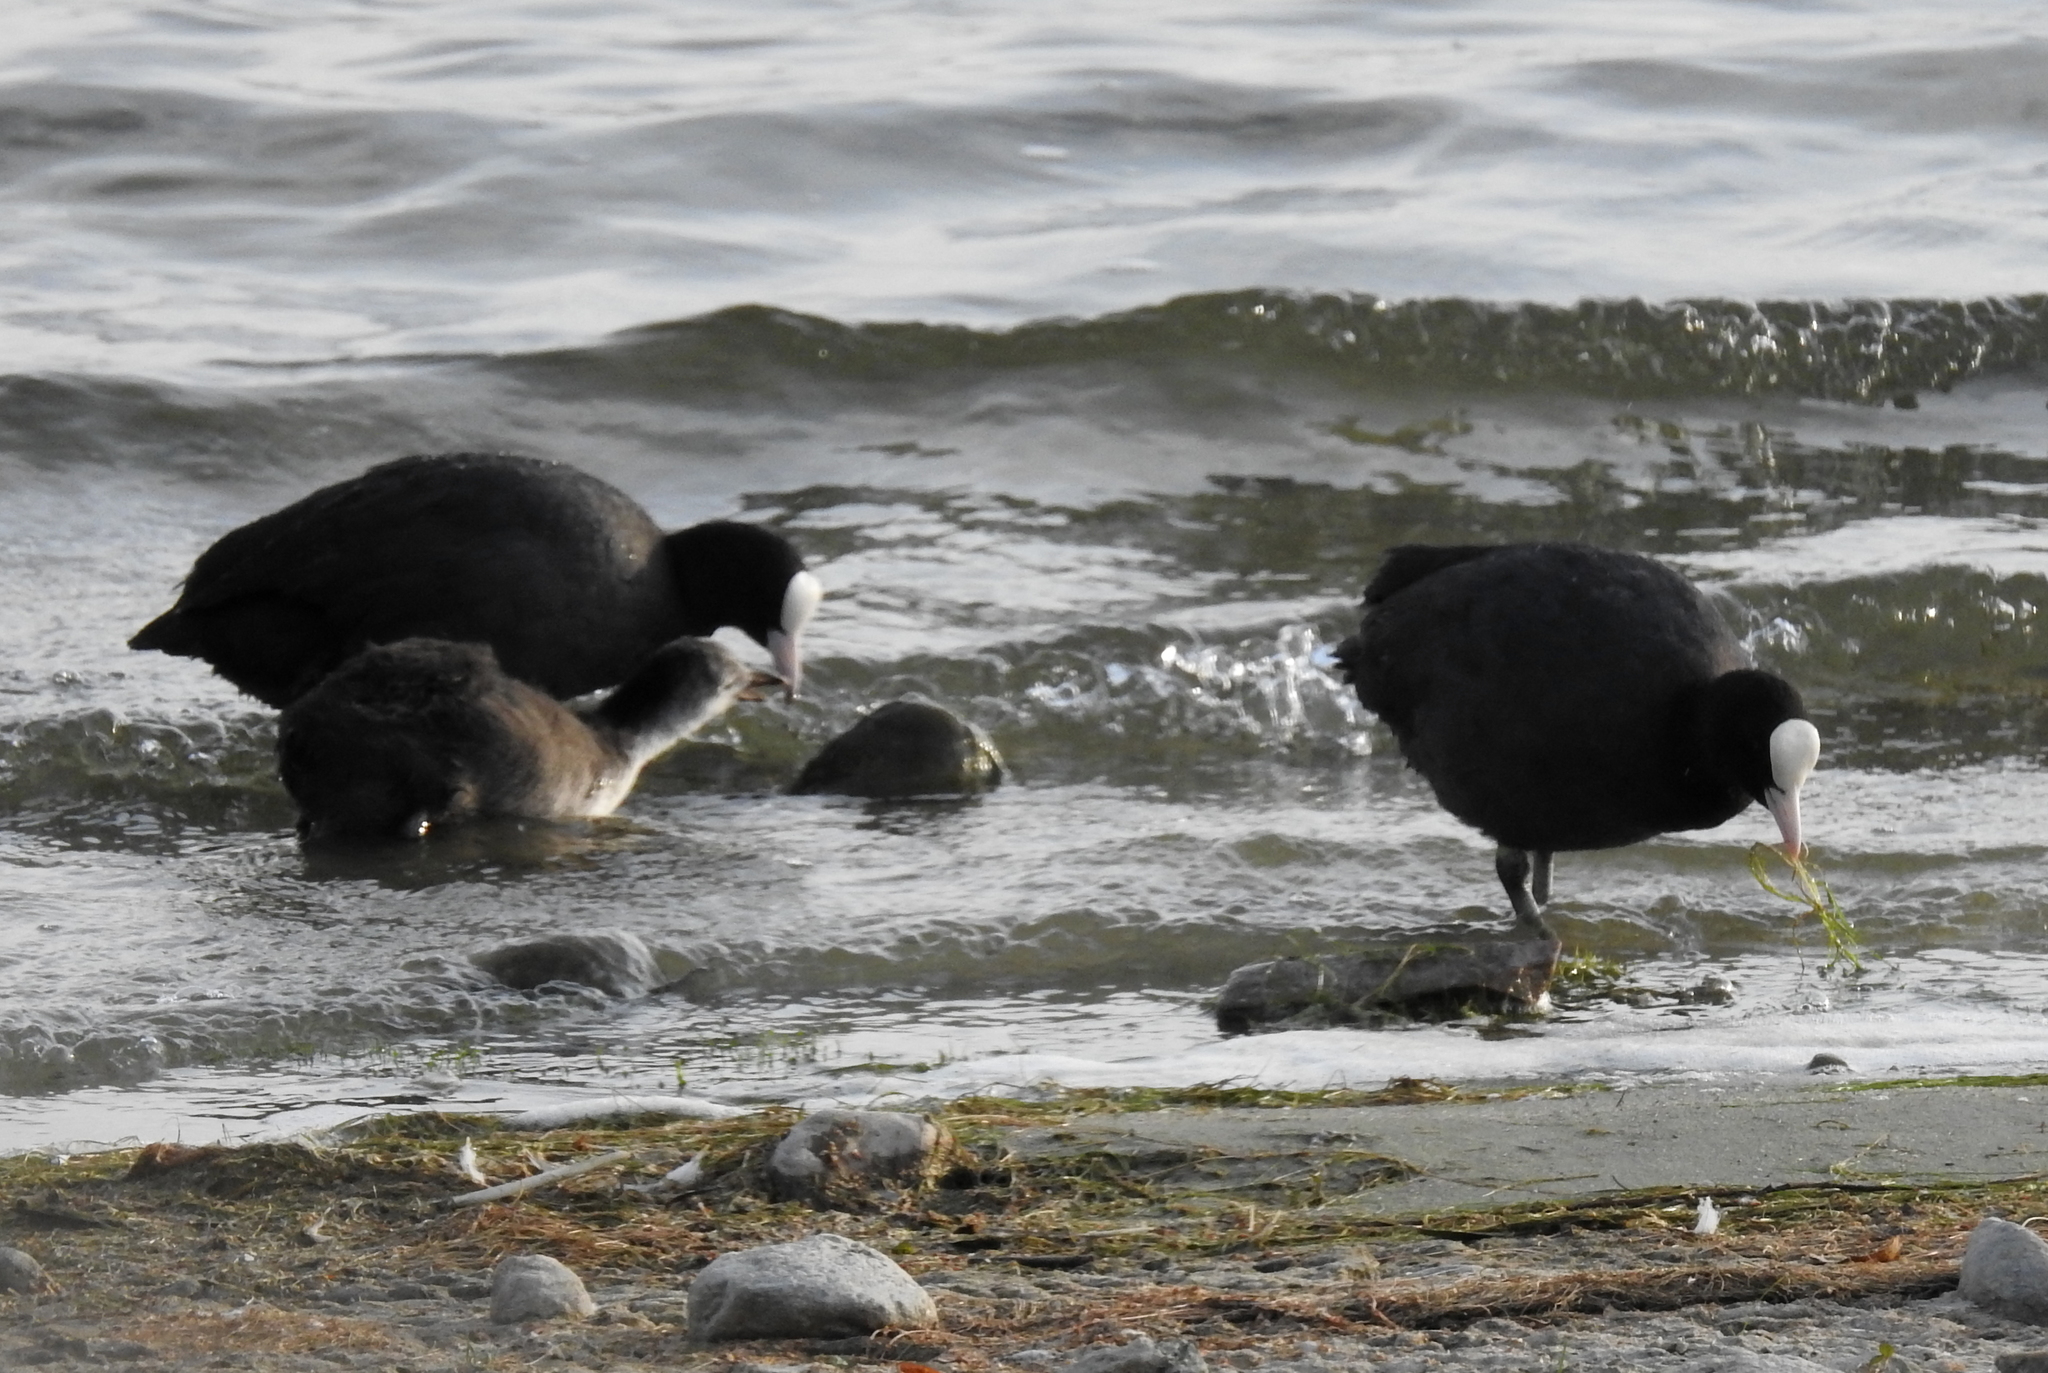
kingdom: Animalia
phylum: Chordata
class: Aves
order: Gruiformes
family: Rallidae
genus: Fulica
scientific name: Fulica atra
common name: Eurasian coot
